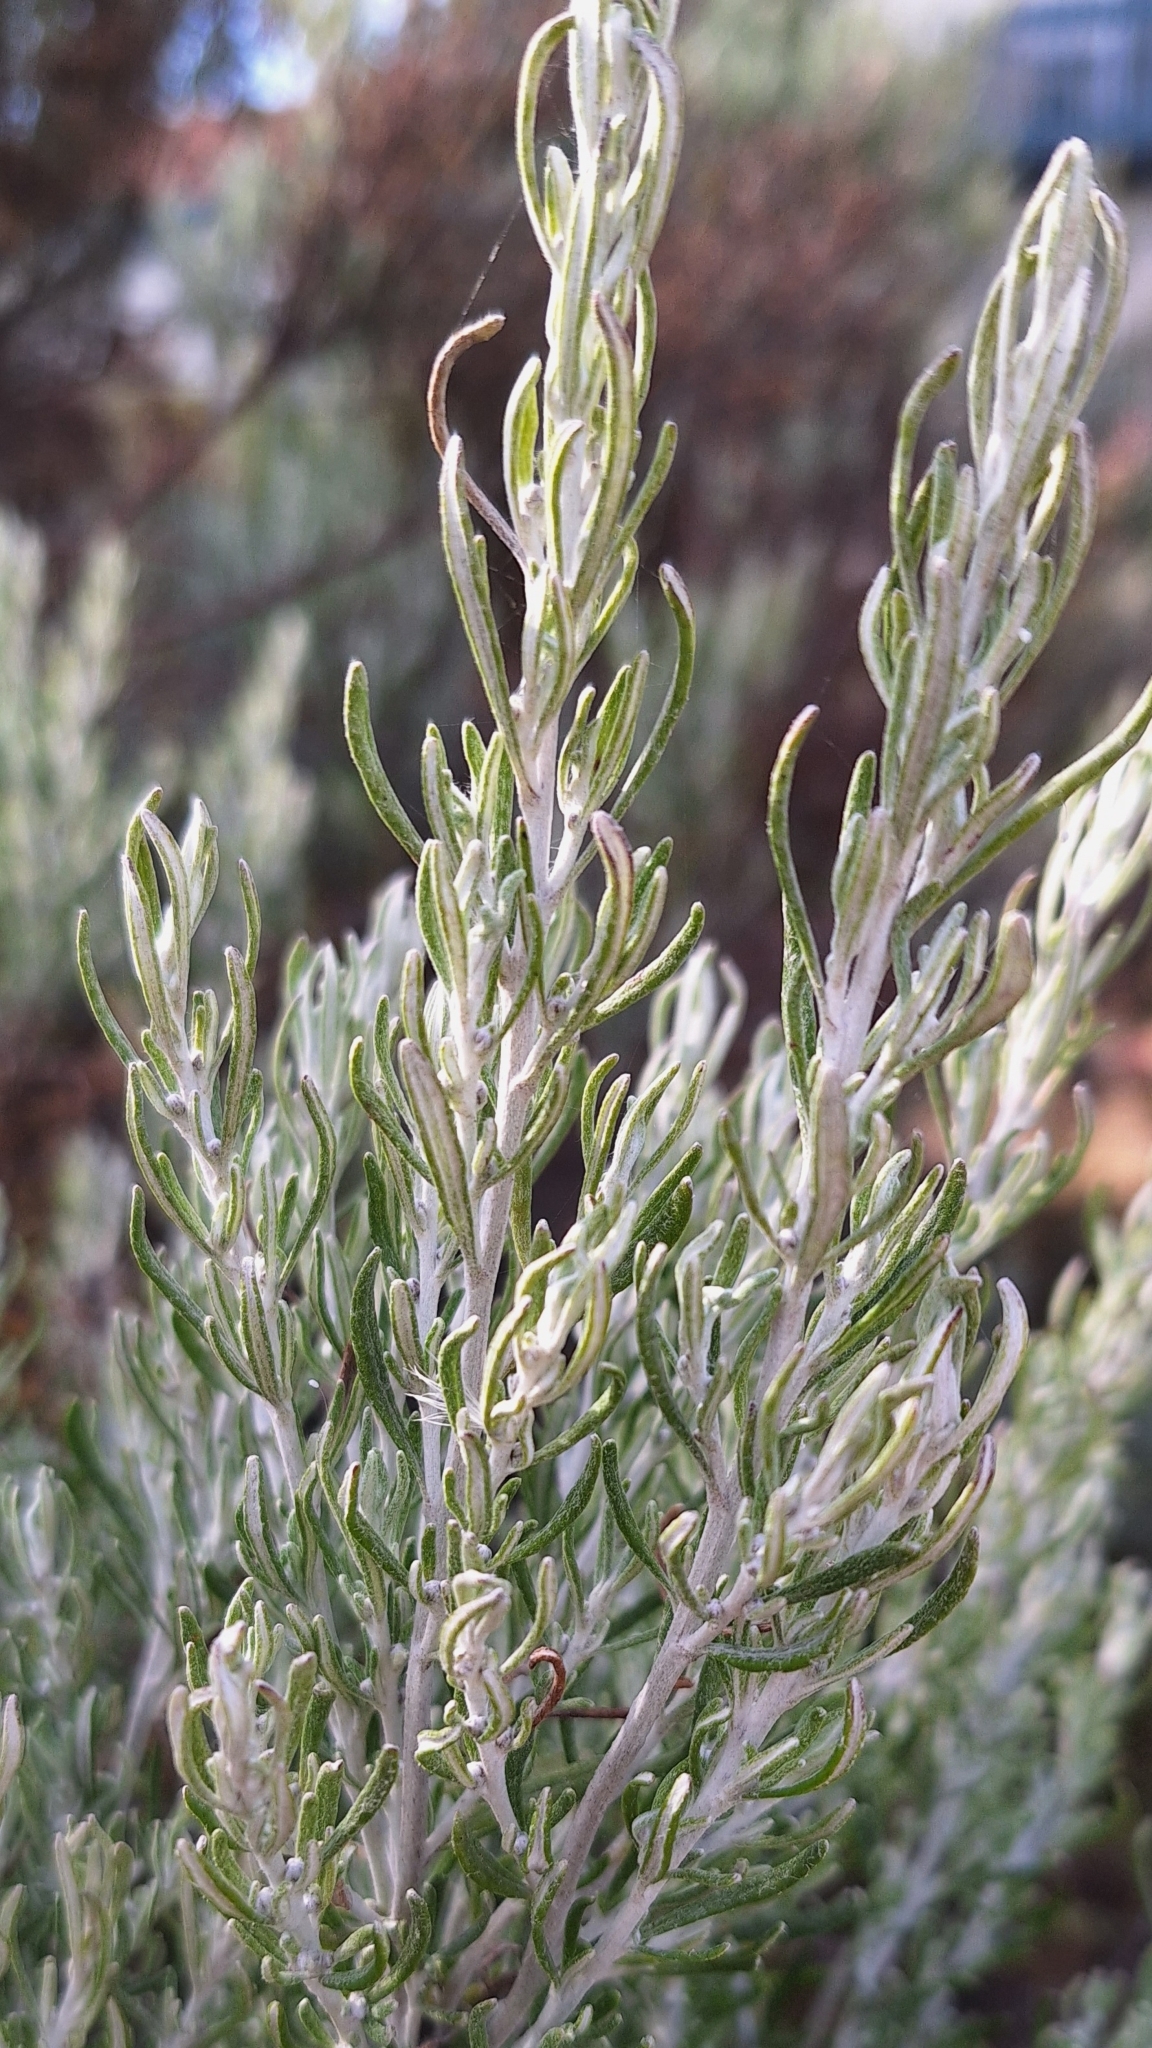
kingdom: Plantae
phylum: Tracheophyta
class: Magnoliopsida
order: Asterales
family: Asteraceae
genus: Olearia
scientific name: Olearia axillaris
